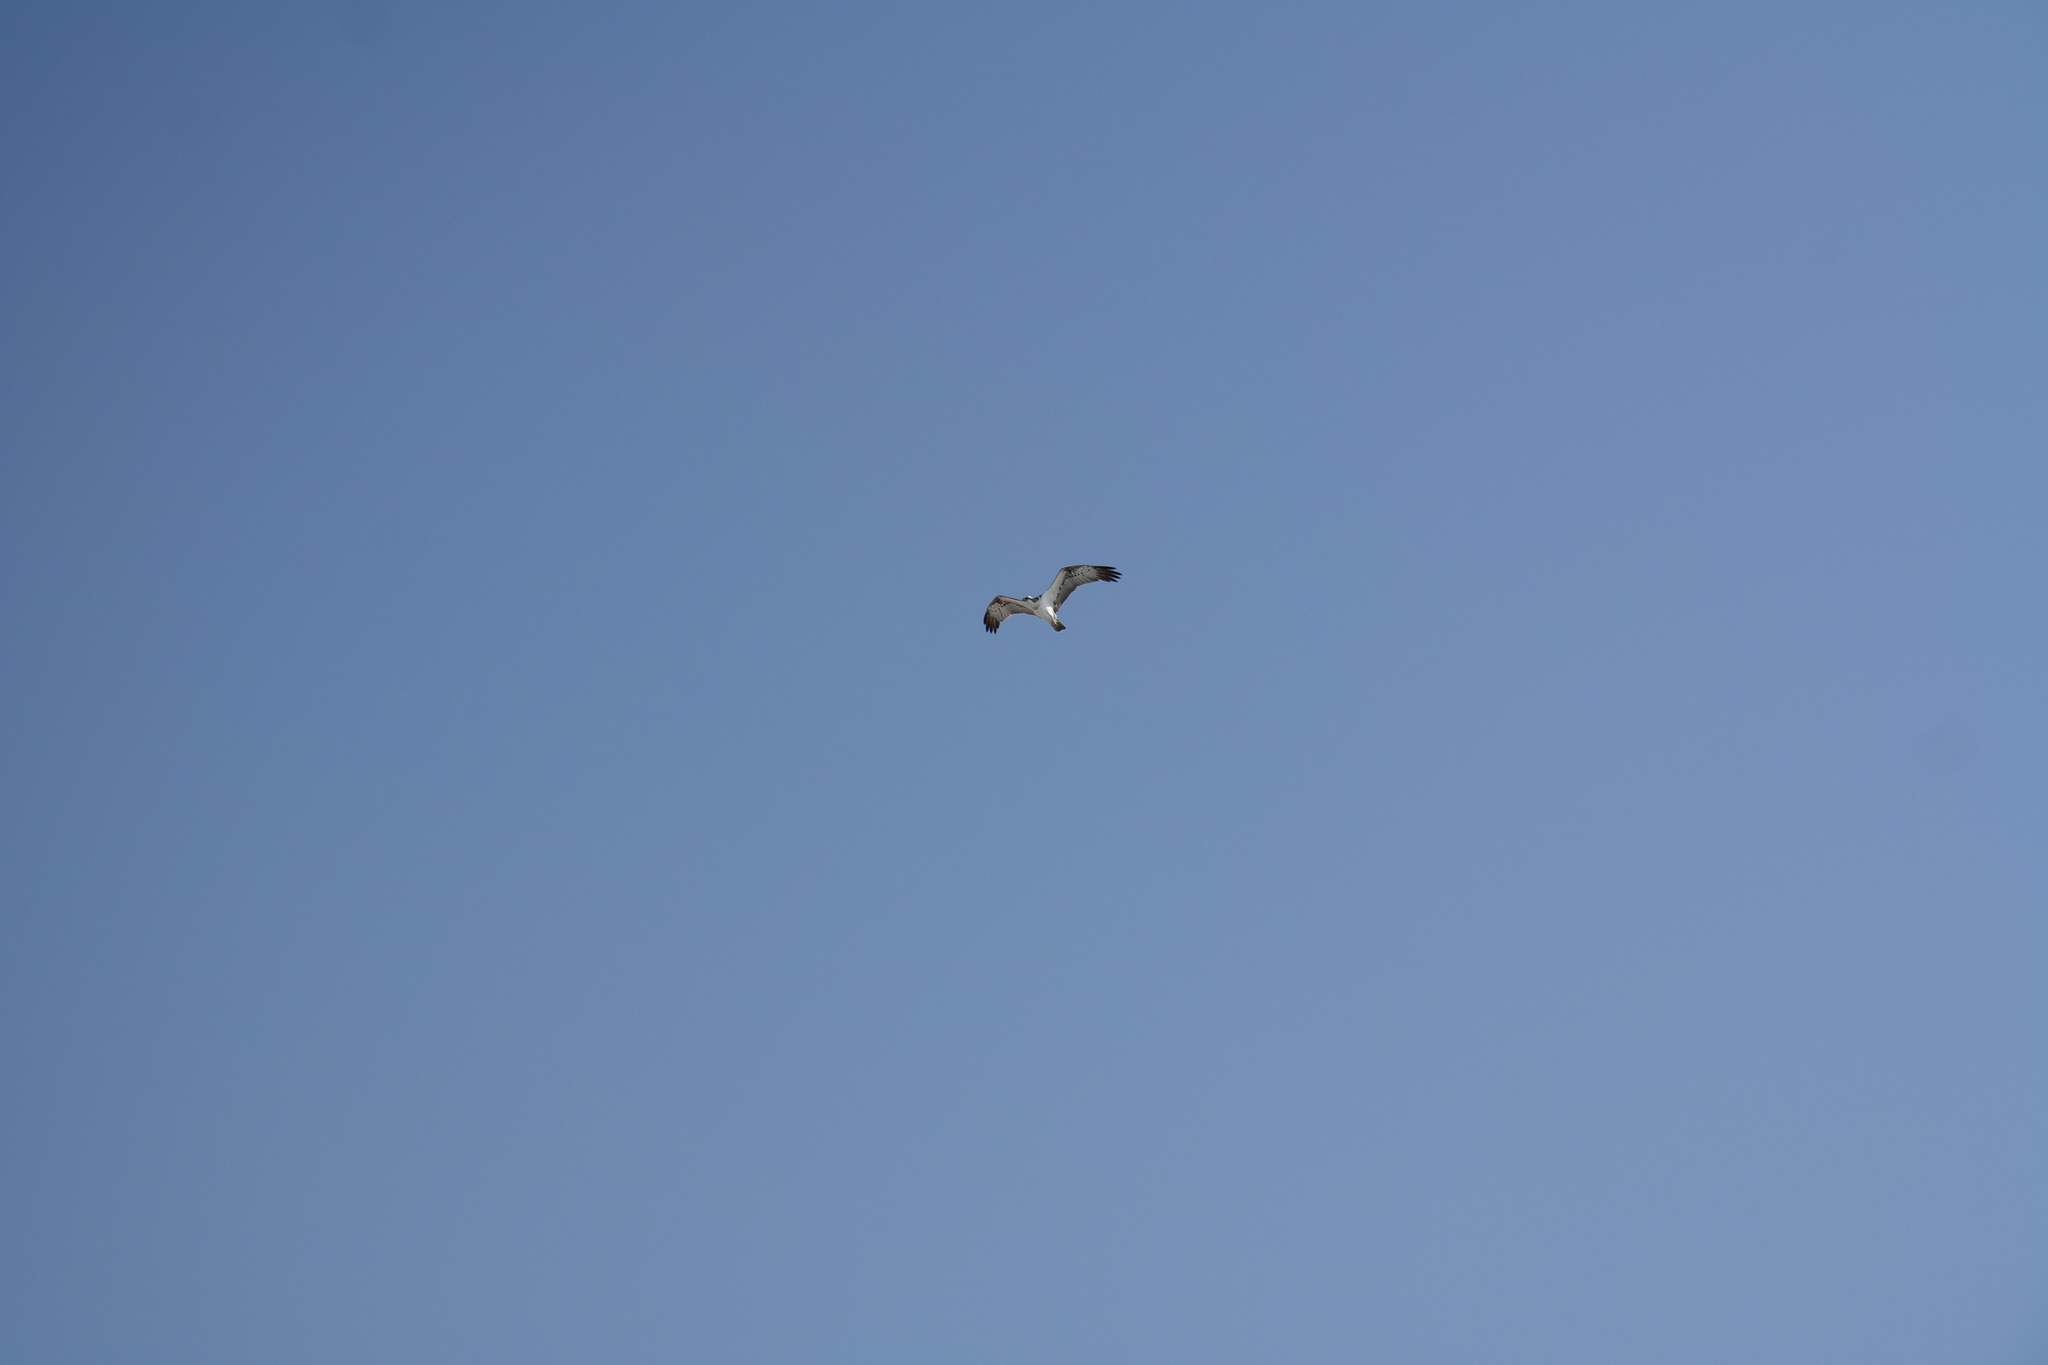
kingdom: Animalia
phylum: Chordata
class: Aves
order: Accipitriformes
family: Pandionidae
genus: Pandion
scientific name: Pandion haliaetus
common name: Osprey
